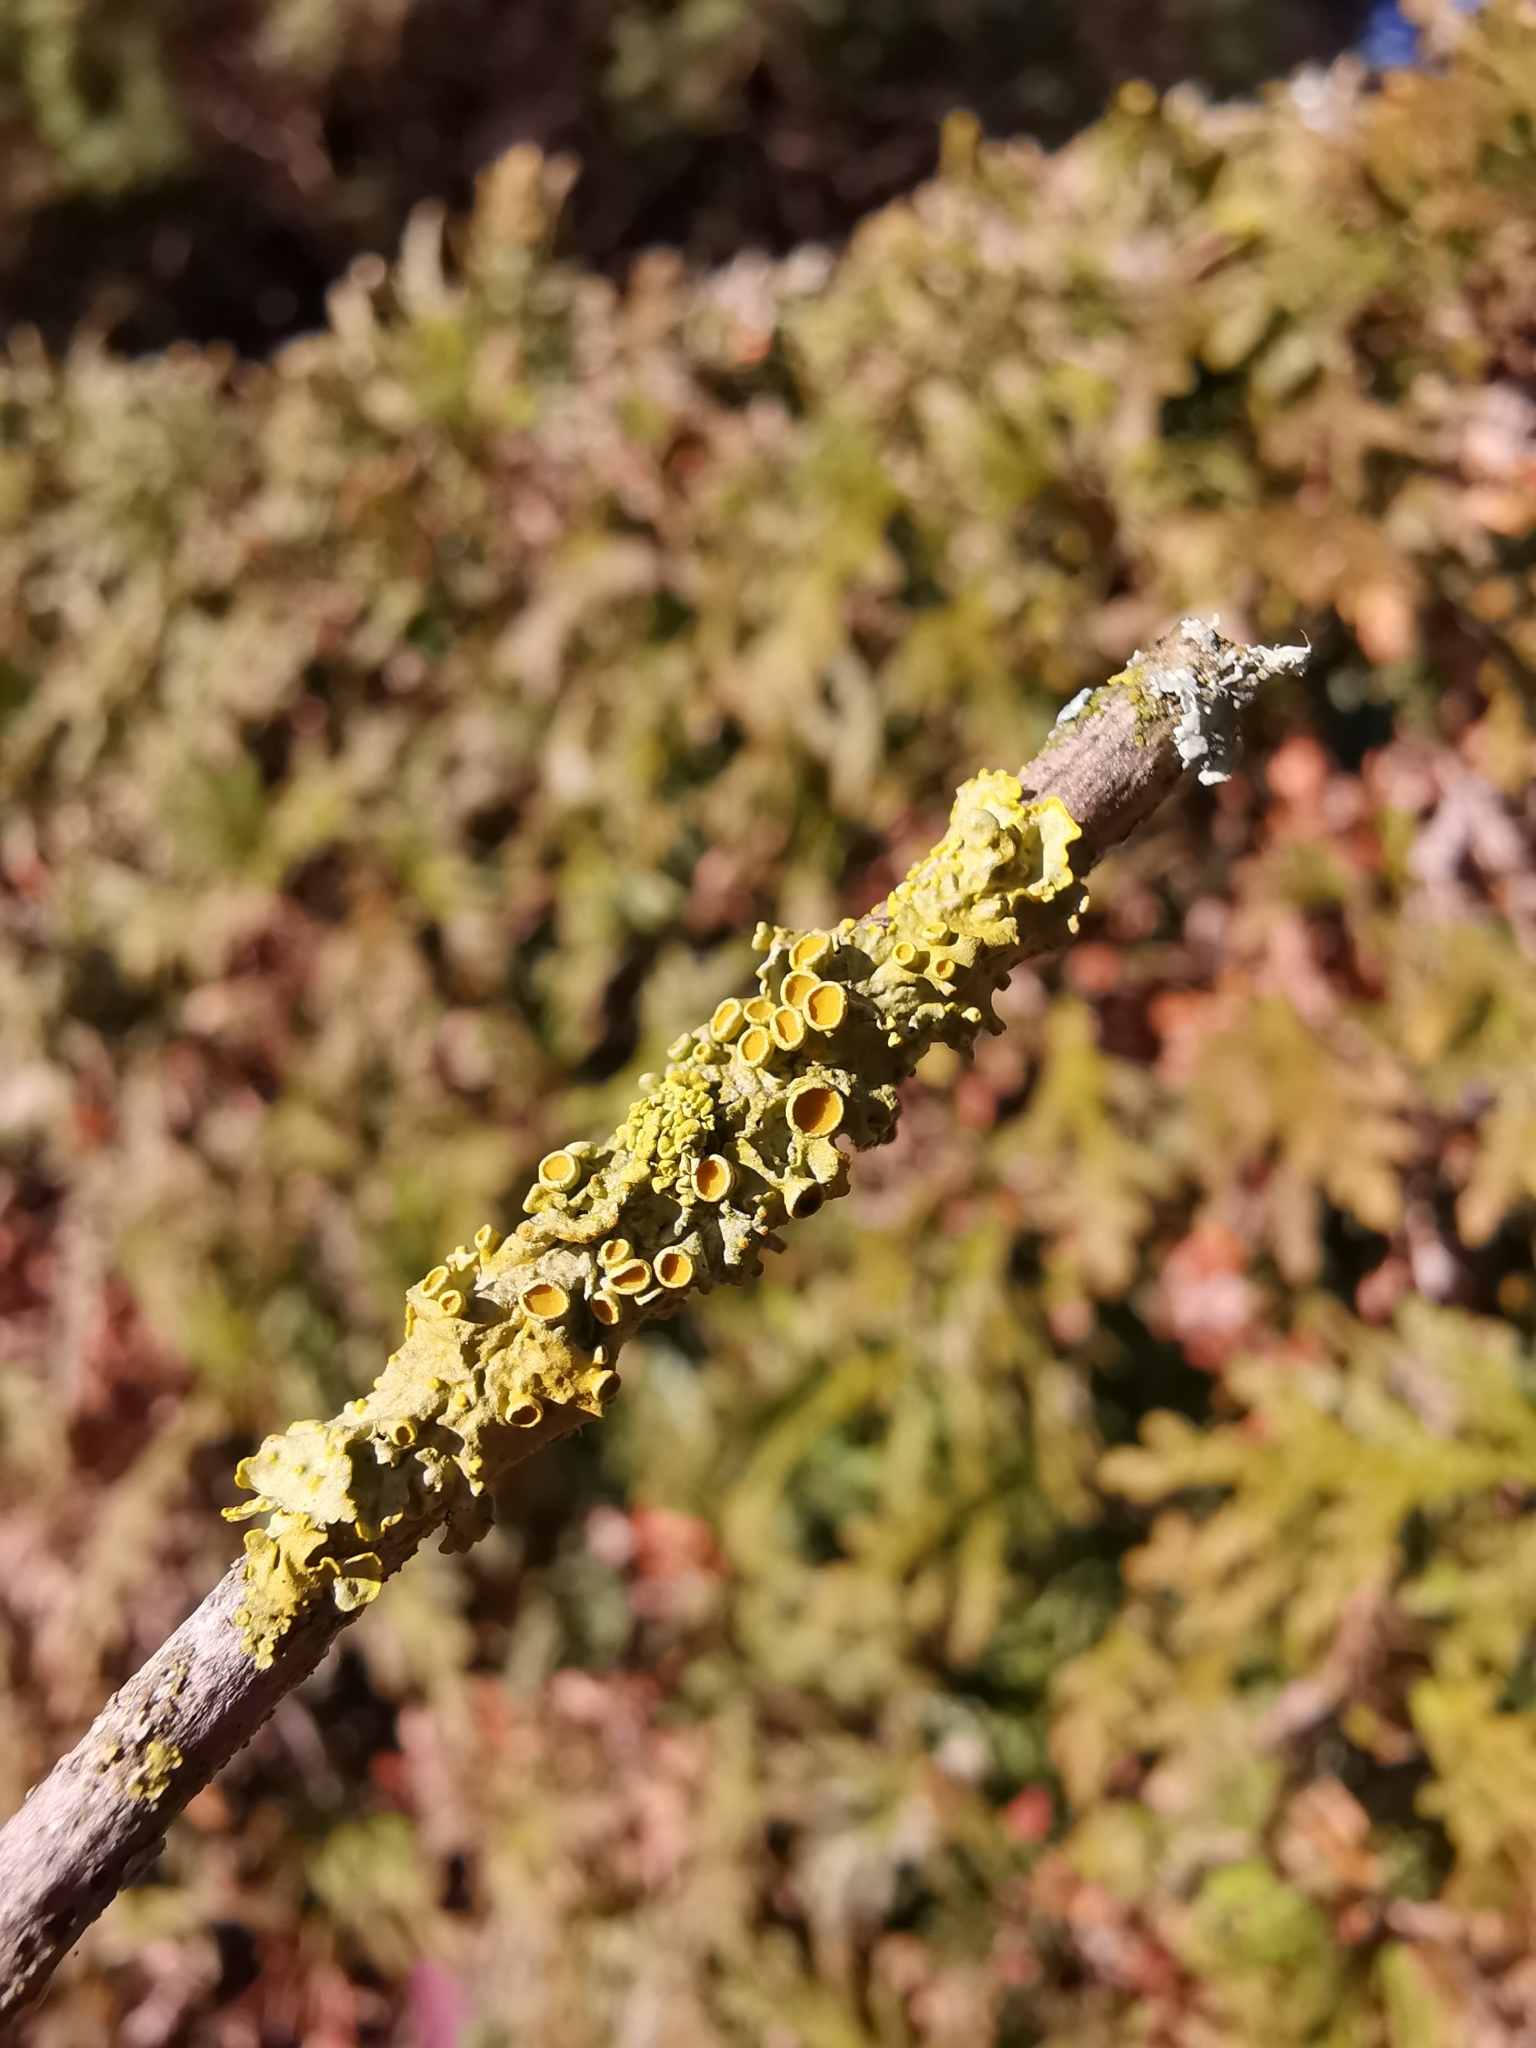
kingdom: Fungi
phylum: Ascomycota
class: Lecanoromycetes
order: Teloschistales
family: Teloschistaceae
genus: Xanthoria
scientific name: Xanthoria parietina
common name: Common orange lichen
